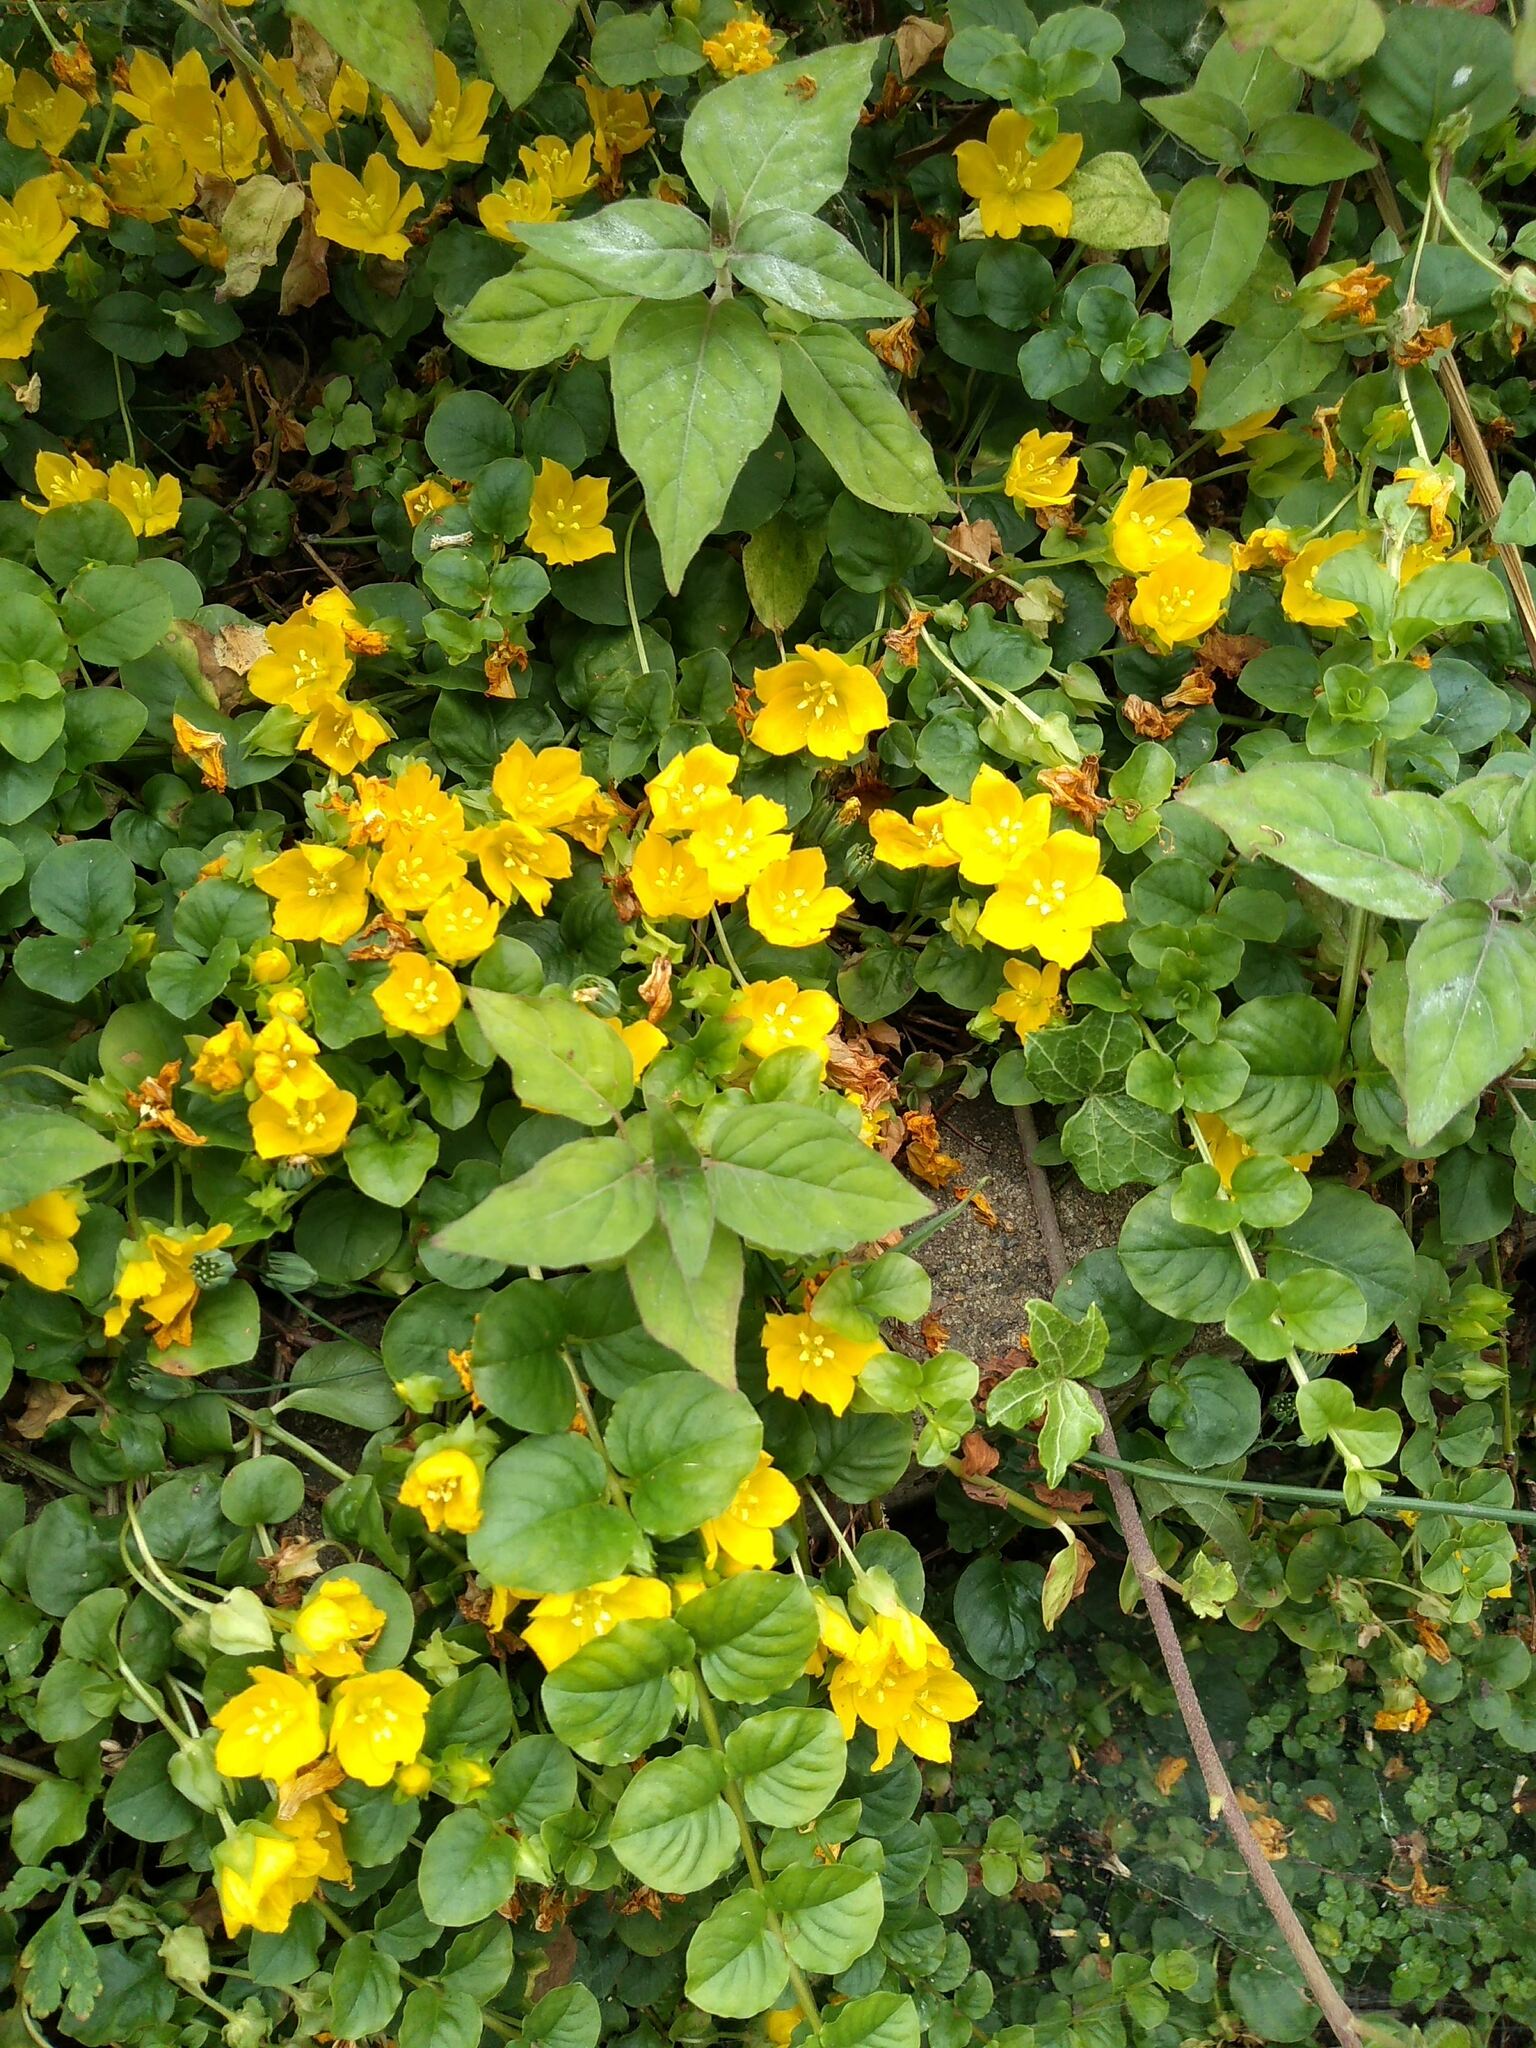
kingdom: Plantae
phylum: Tracheophyta
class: Magnoliopsida
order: Ericales
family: Primulaceae
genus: Lysimachia
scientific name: Lysimachia nummularia
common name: Moneywort
